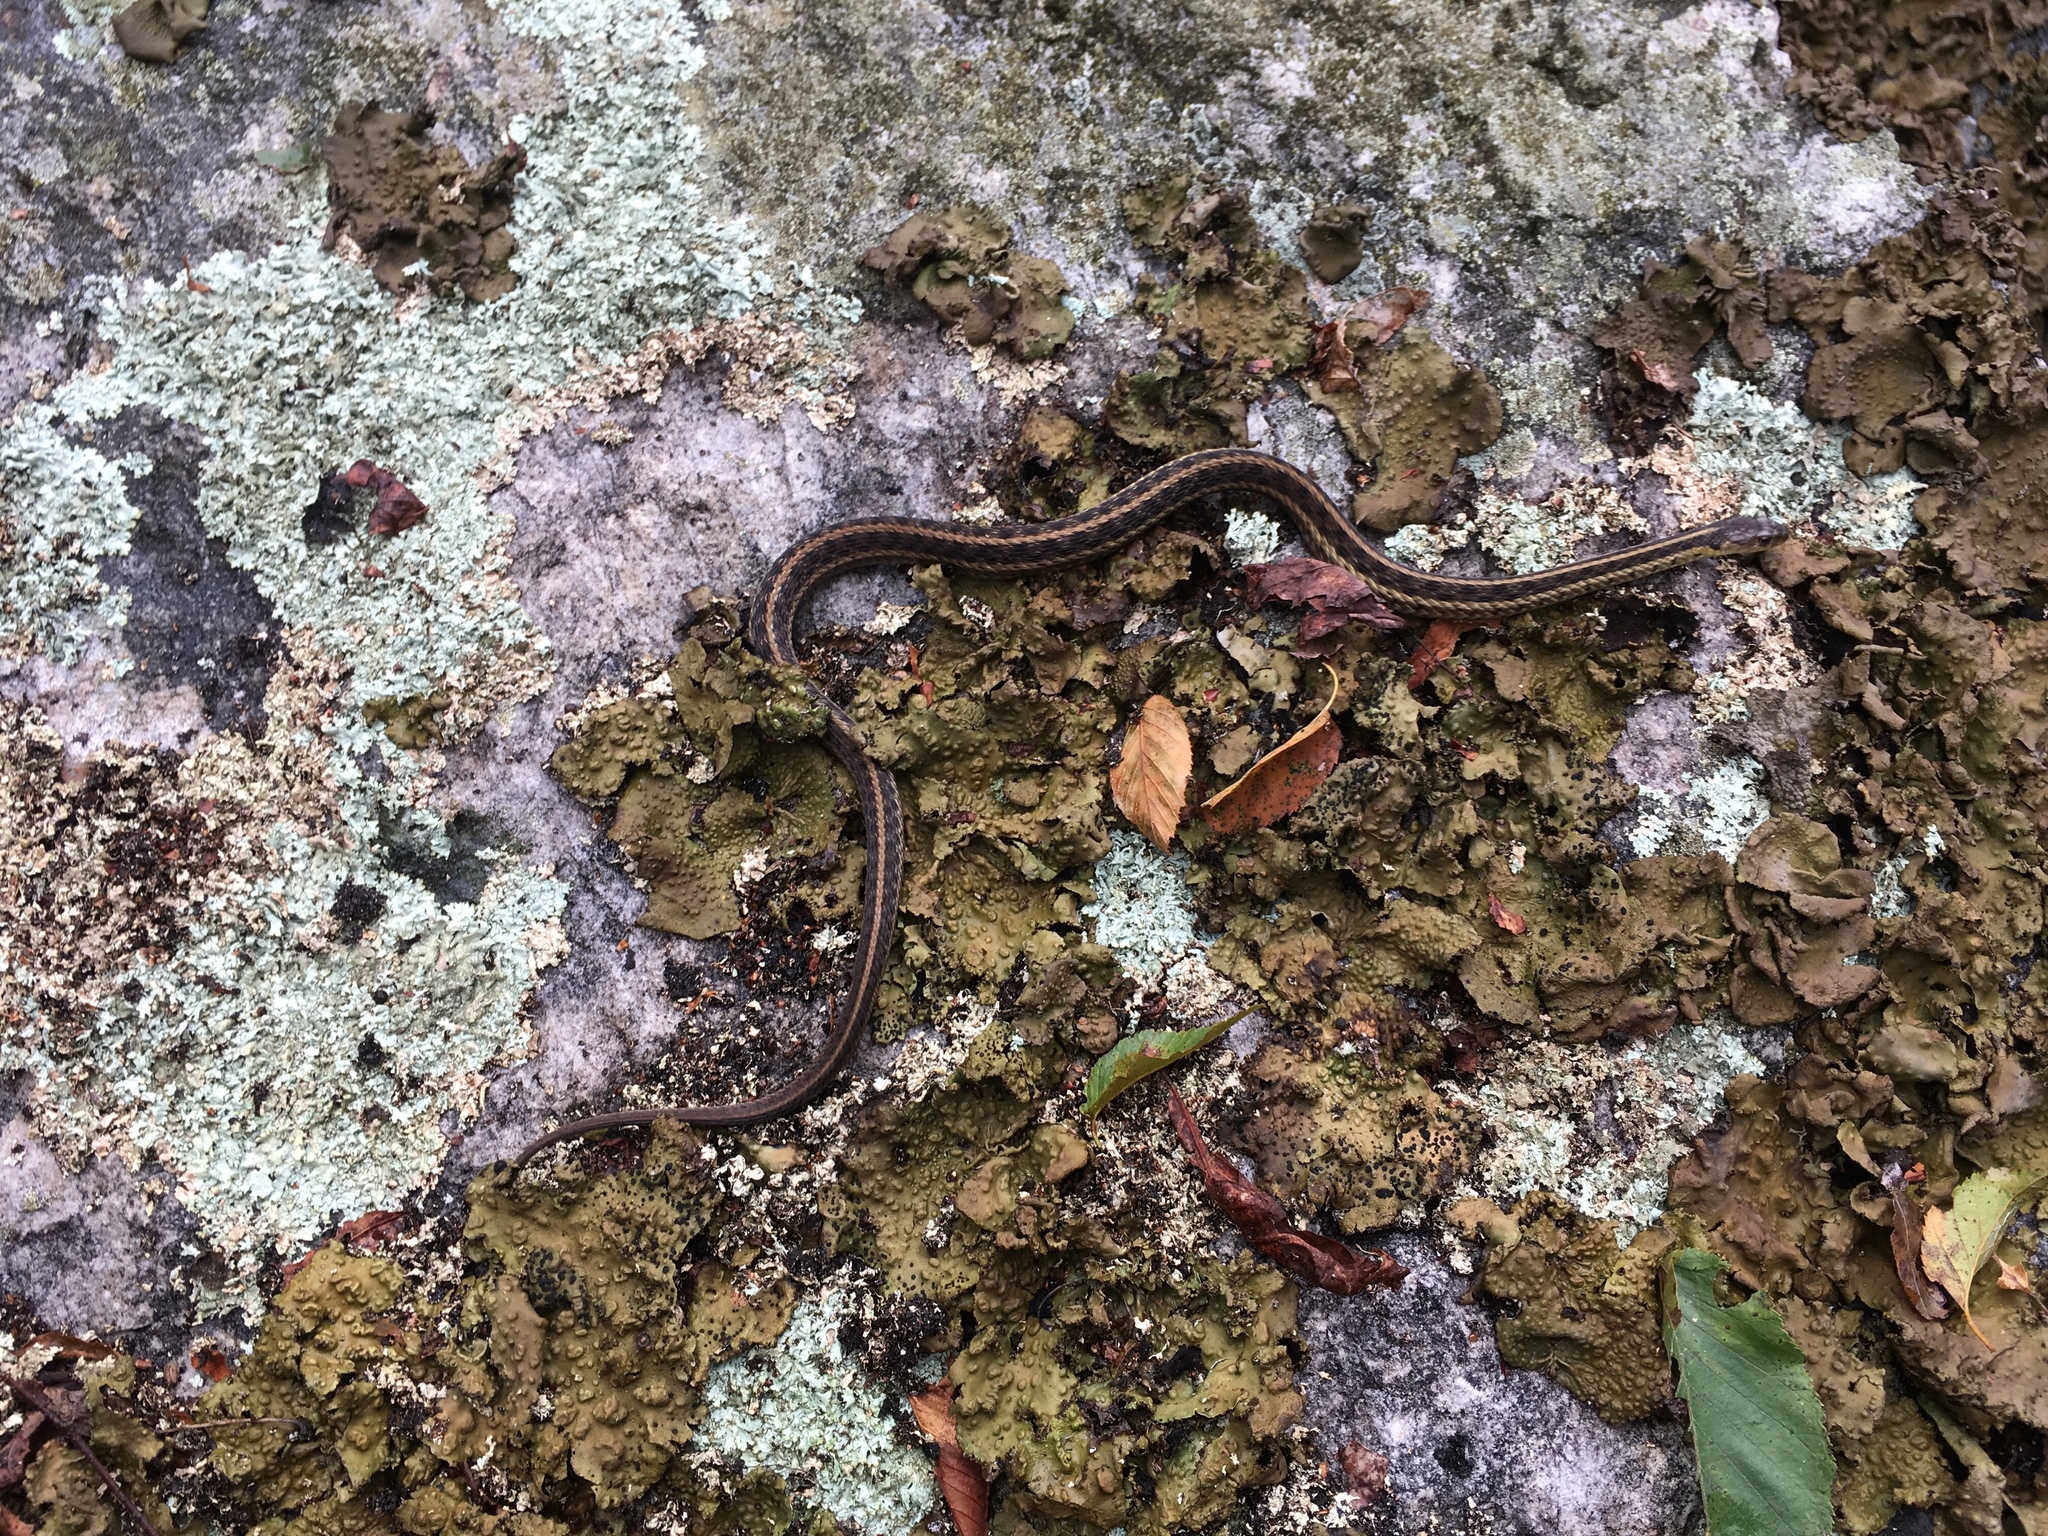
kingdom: Animalia
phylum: Chordata
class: Squamata
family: Colubridae
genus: Thamnophis
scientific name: Thamnophis sirtalis
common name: Common garter snake
